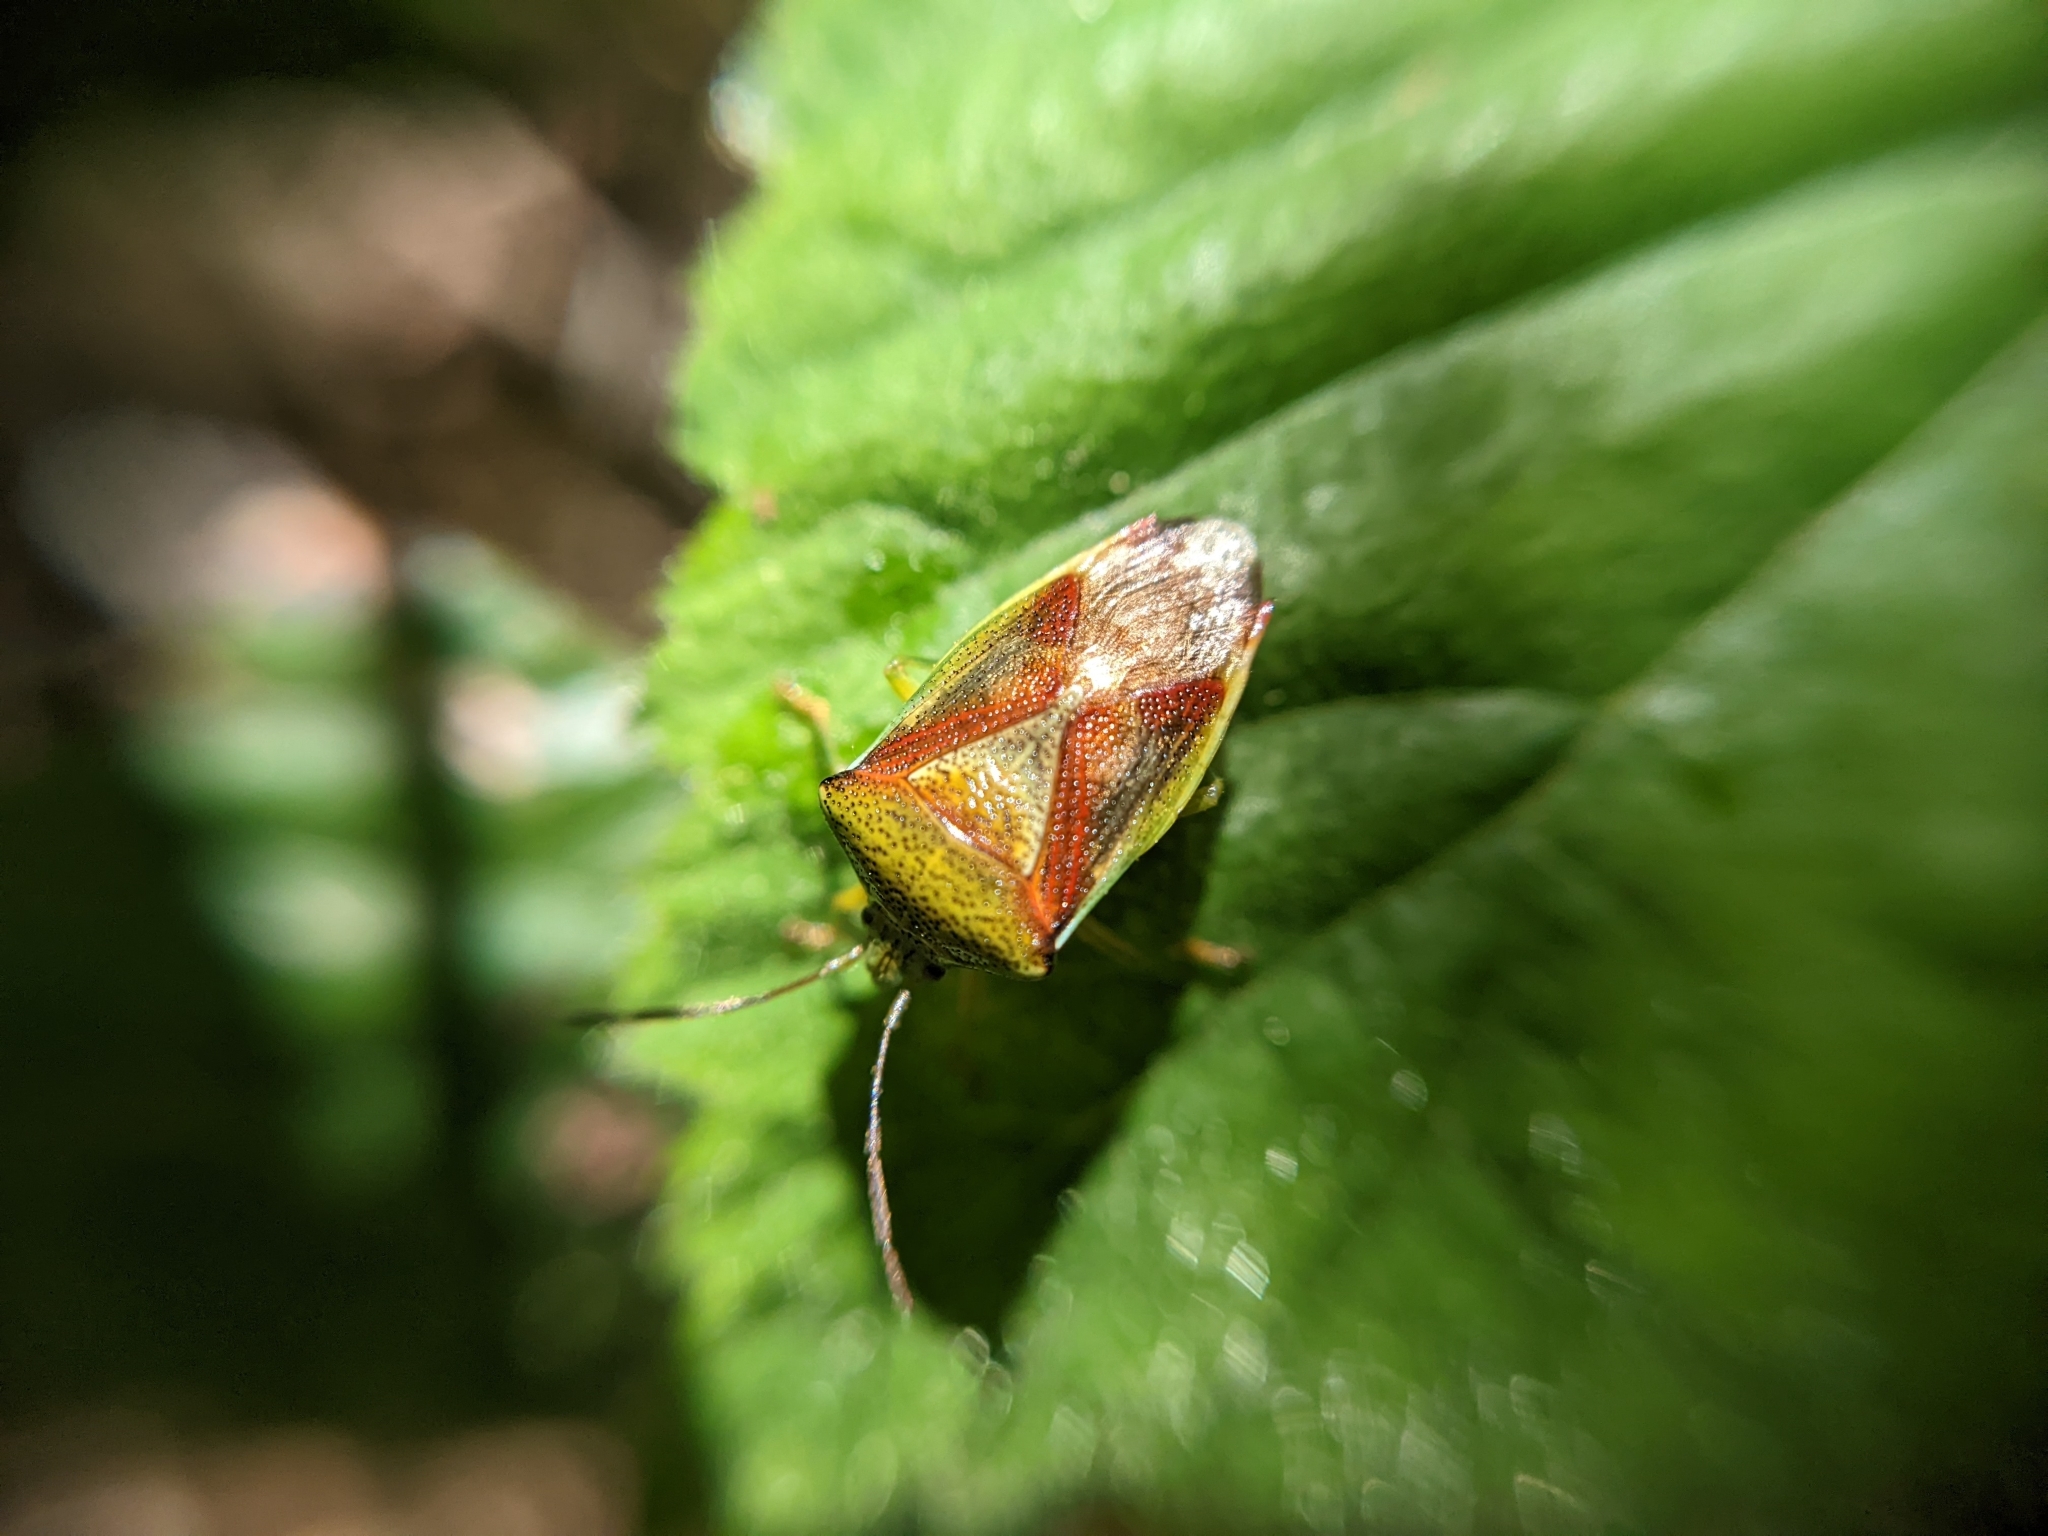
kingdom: Animalia
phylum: Arthropoda
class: Insecta
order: Hemiptera
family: Acanthosomatidae
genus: Elasmostethus
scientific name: Elasmostethus interstinctus
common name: Birch shieldbug
